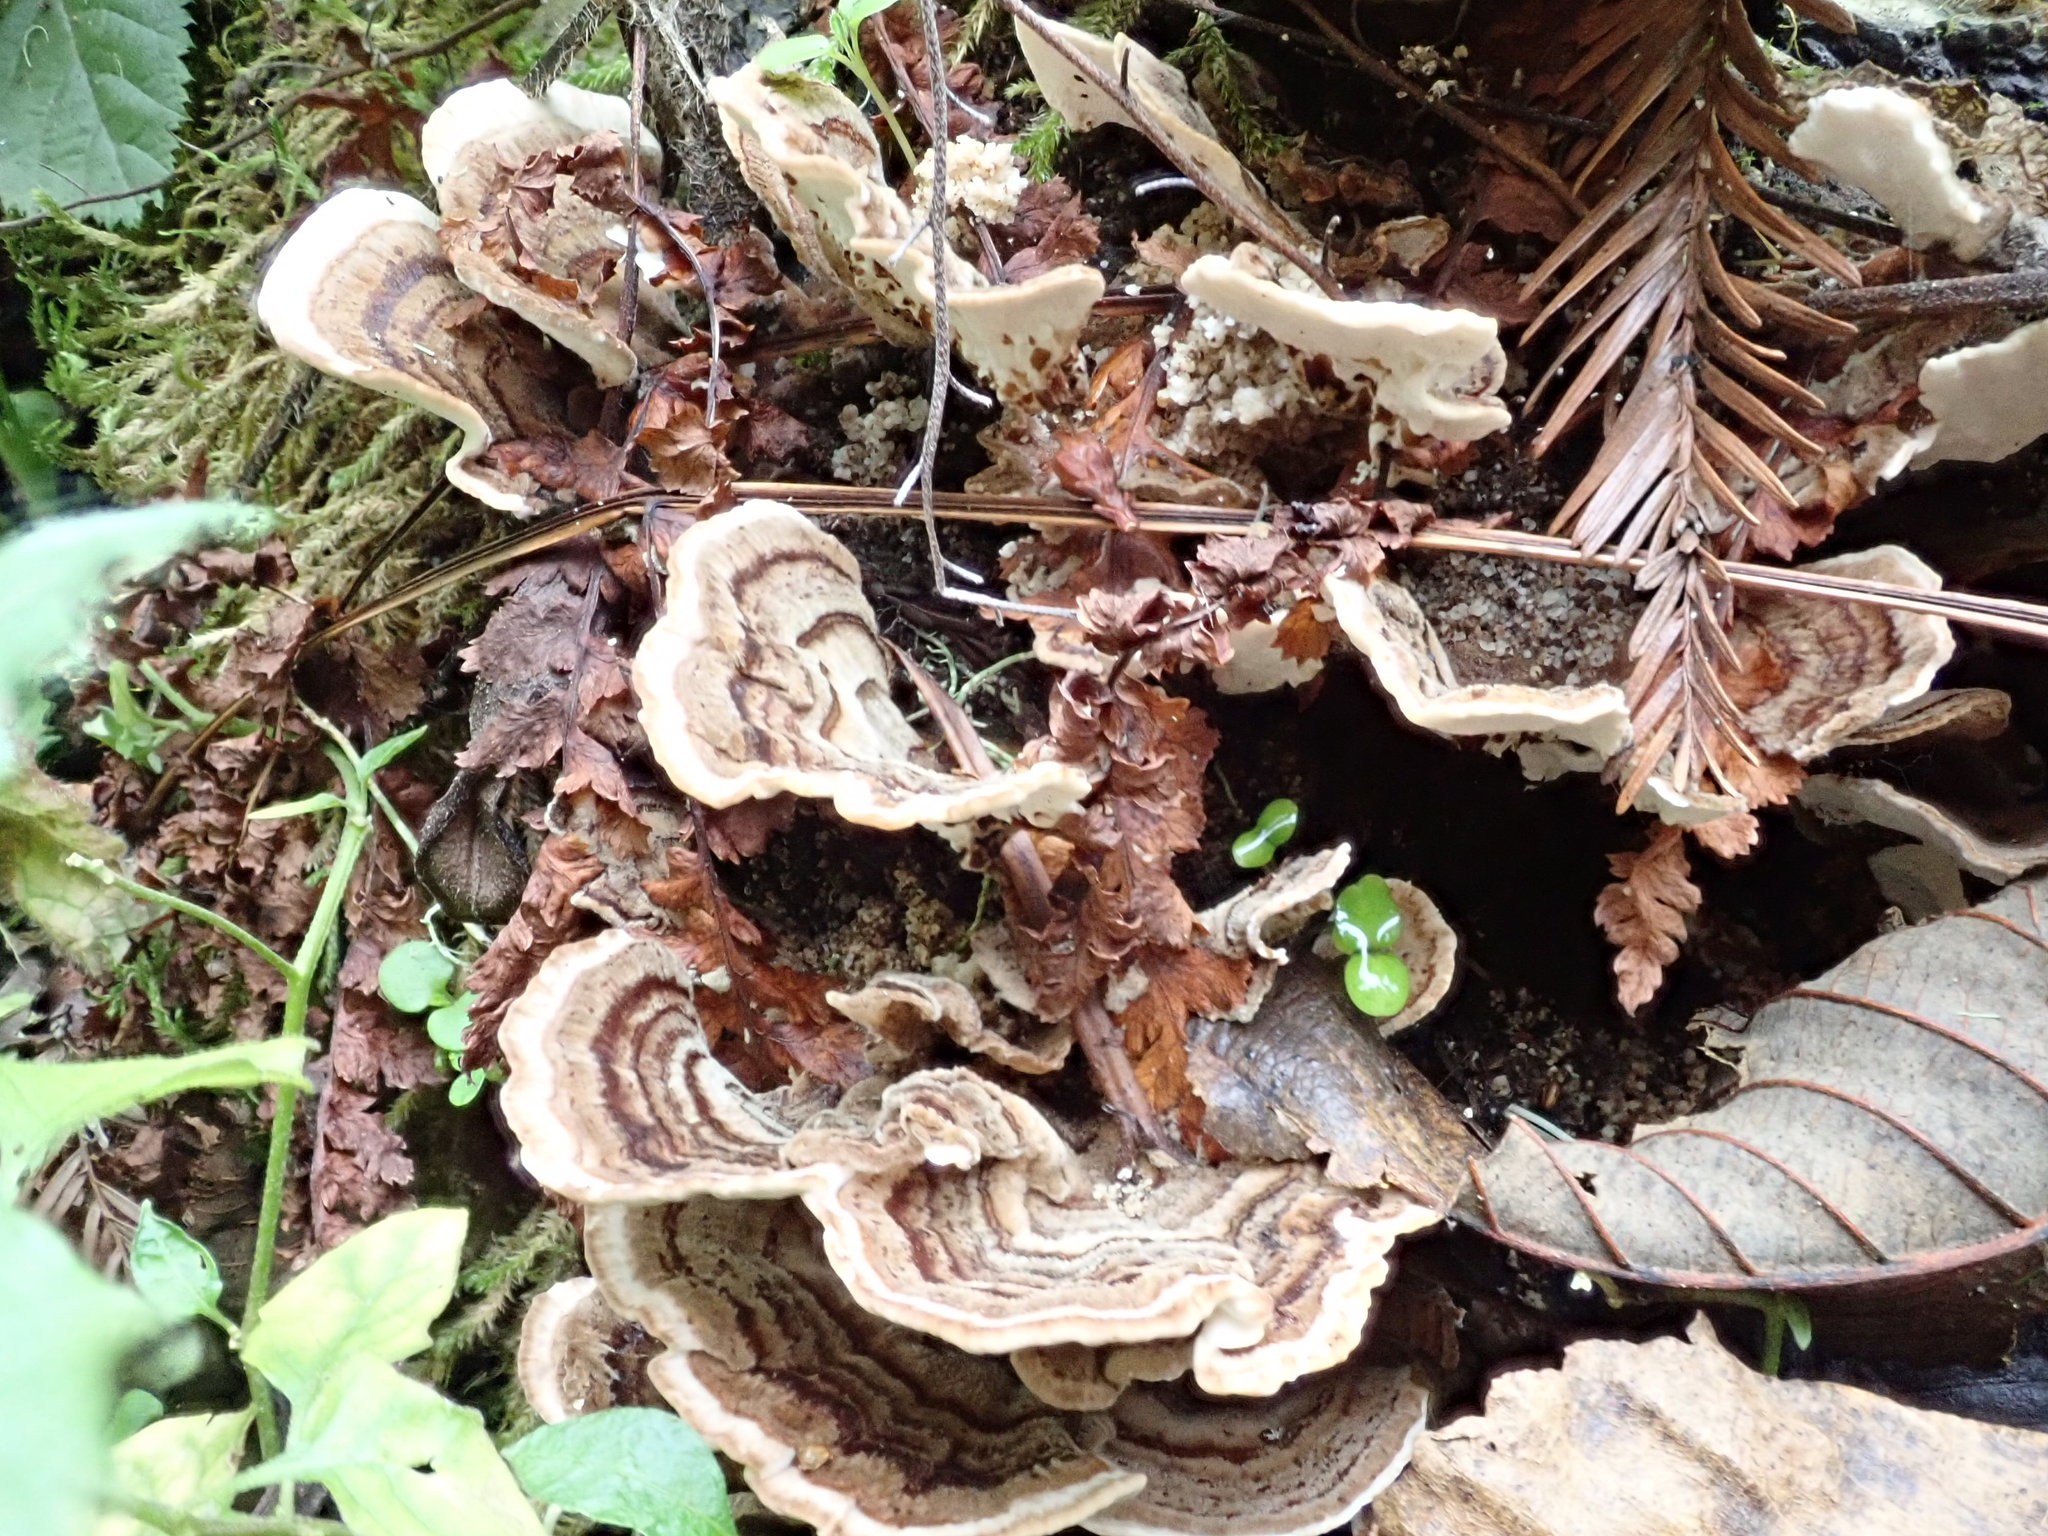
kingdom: Fungi
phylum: Basidiomycota
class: Agaricomycetes
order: Polyporales
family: Polyporaceae
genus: Trametes
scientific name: Trametes versicolor
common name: Turkeytail
